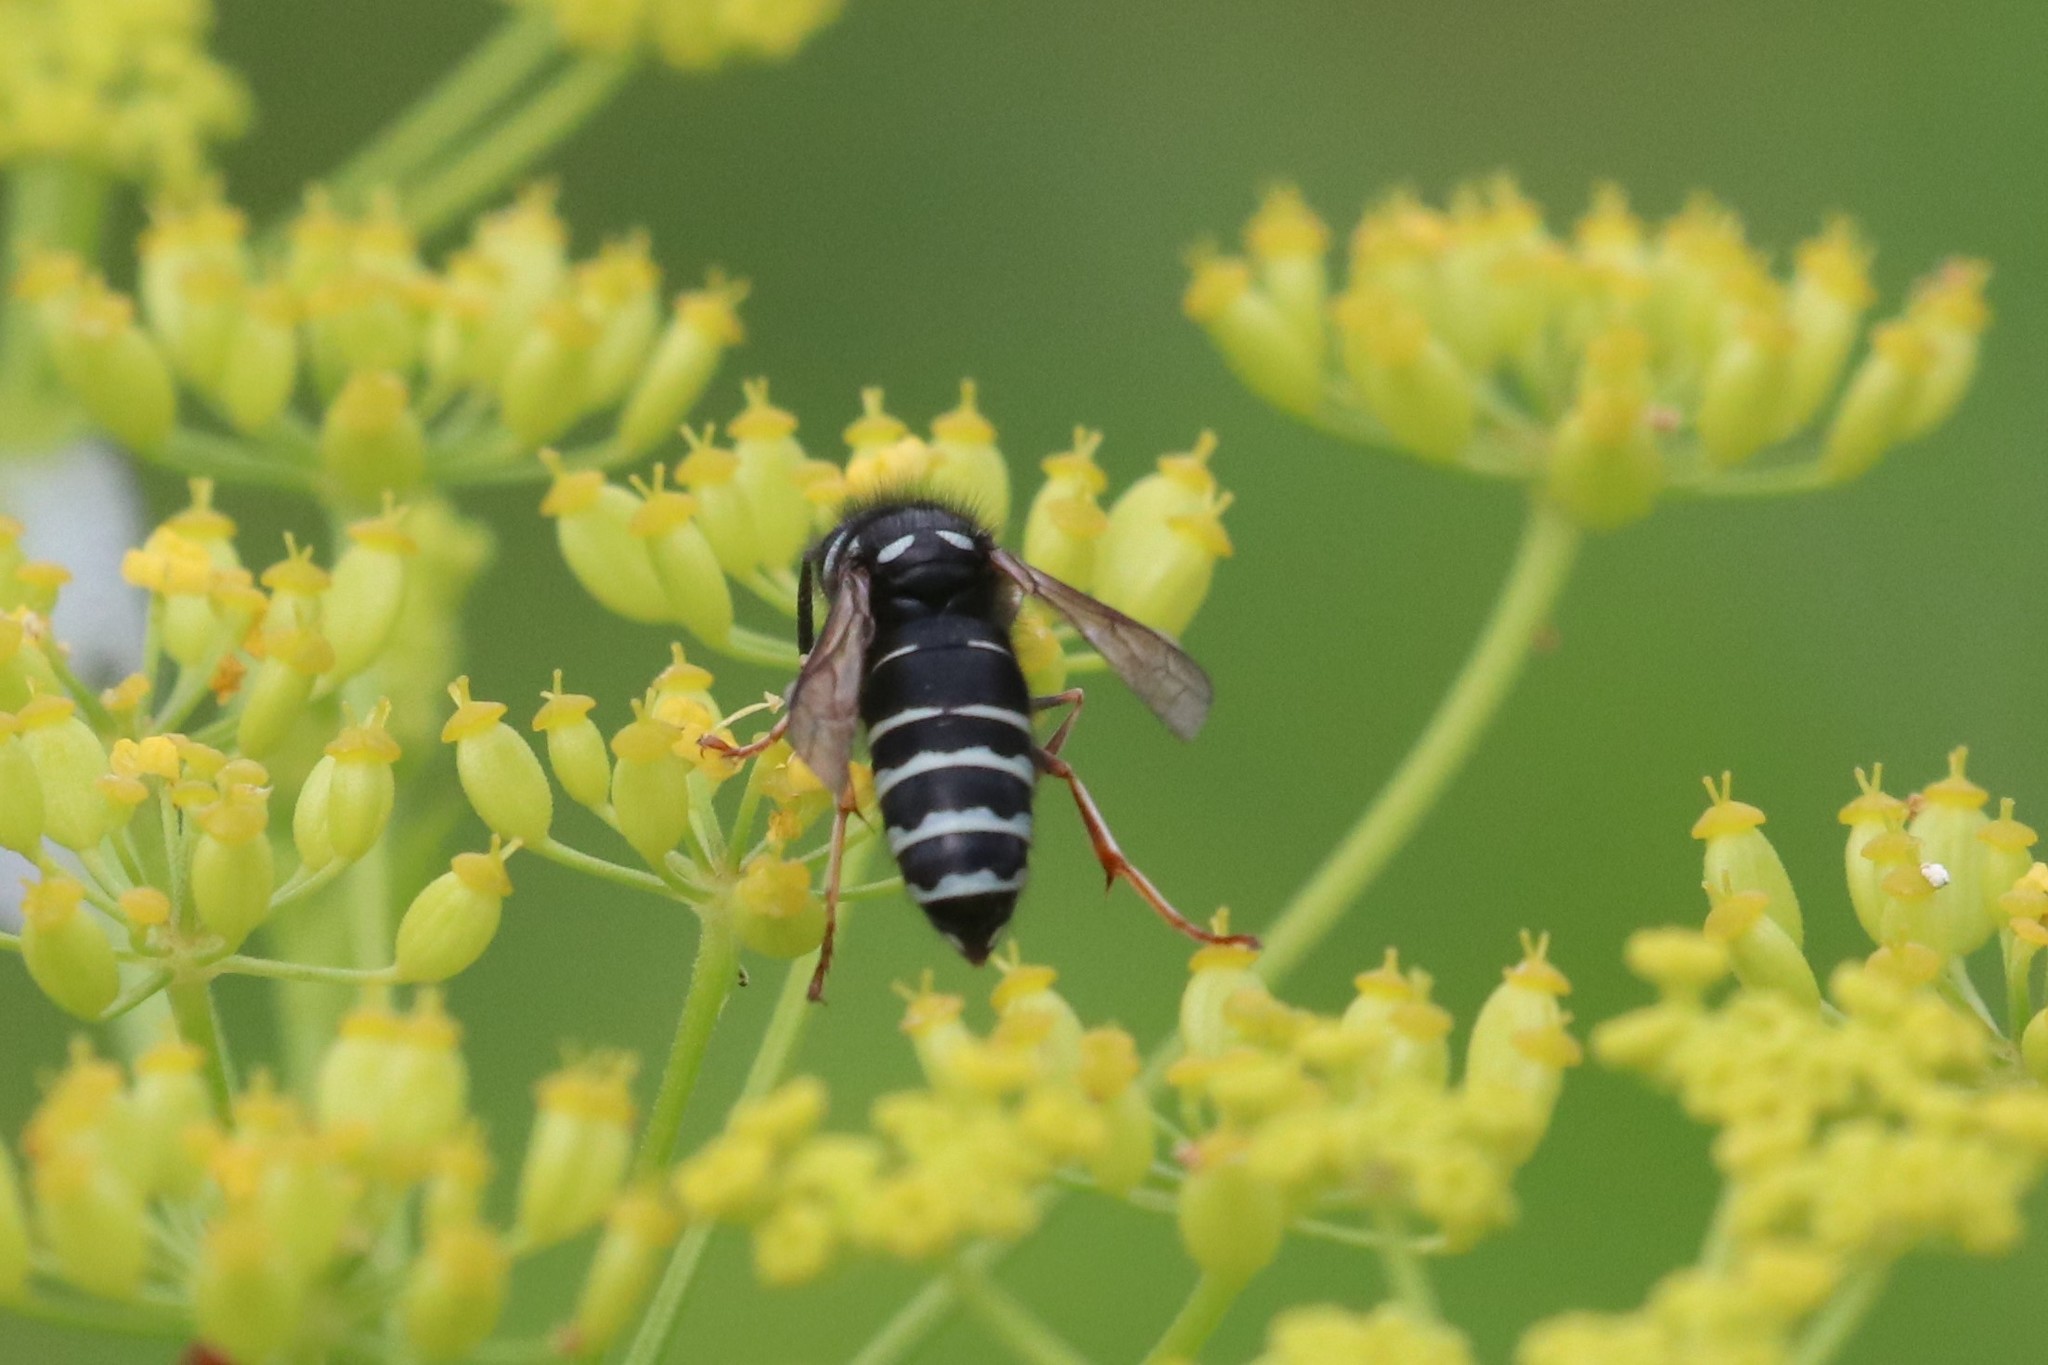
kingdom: Animalia
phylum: Arthropoda
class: Insecta
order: Hymenoptera
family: Vespidae
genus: Vespula
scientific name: Vespula consobrina
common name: Blackjacket
